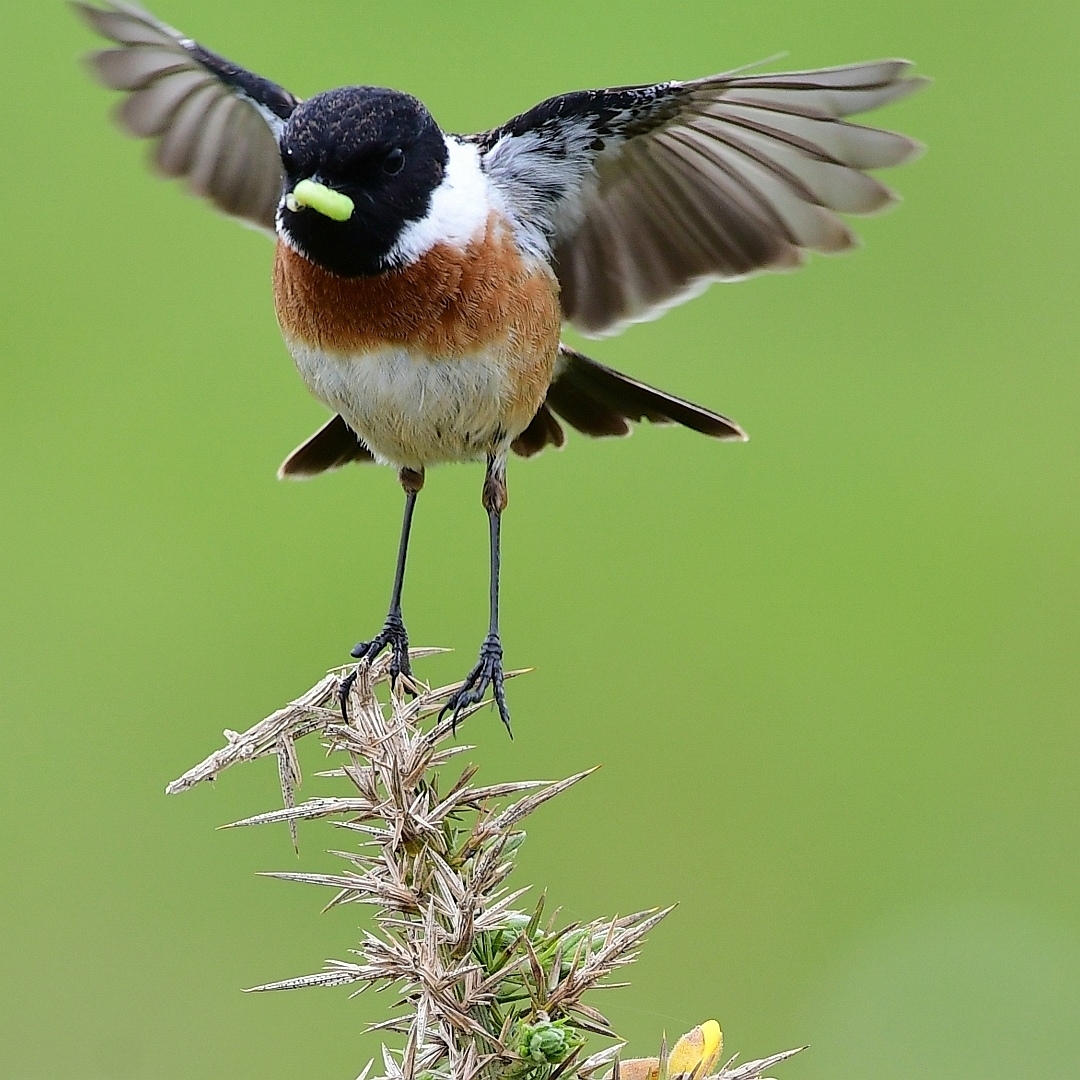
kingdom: Animalia
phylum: Chordata
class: Aves
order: Passeriformes
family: Muscicapidae
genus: Saxicola
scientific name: Saxicola rubicola
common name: European stonechat
